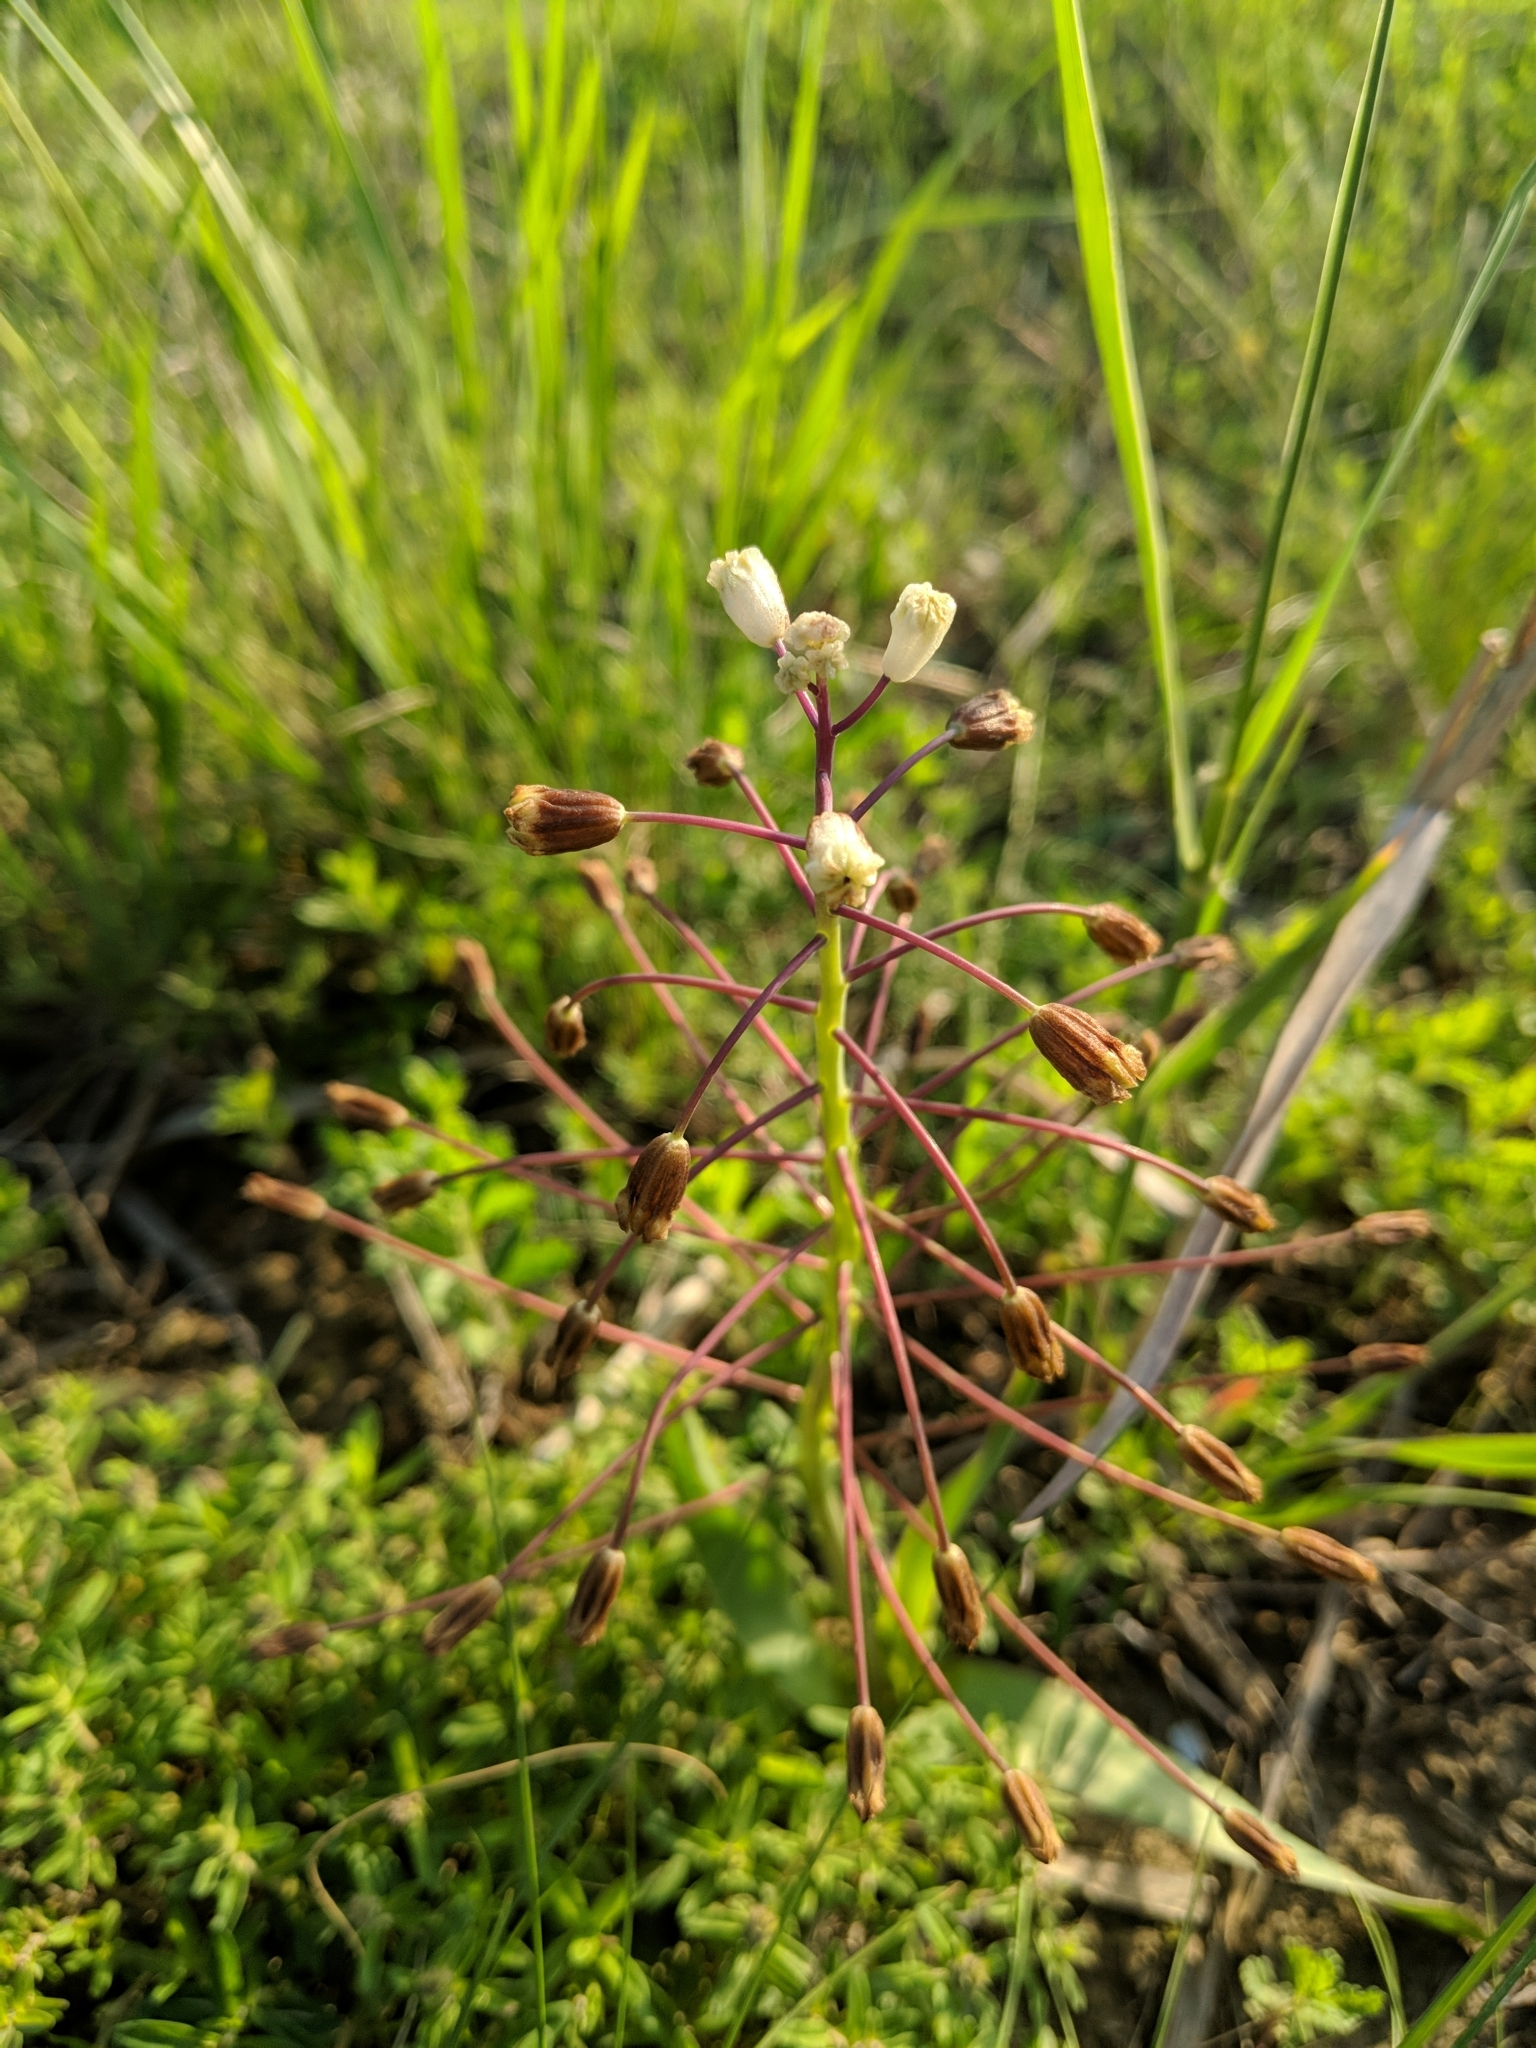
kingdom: Plantae
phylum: Tracheophyta
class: Liliopsida
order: Asparagales
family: Asparagaceae
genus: Bellevalia
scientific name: Bellevalia speciosa
